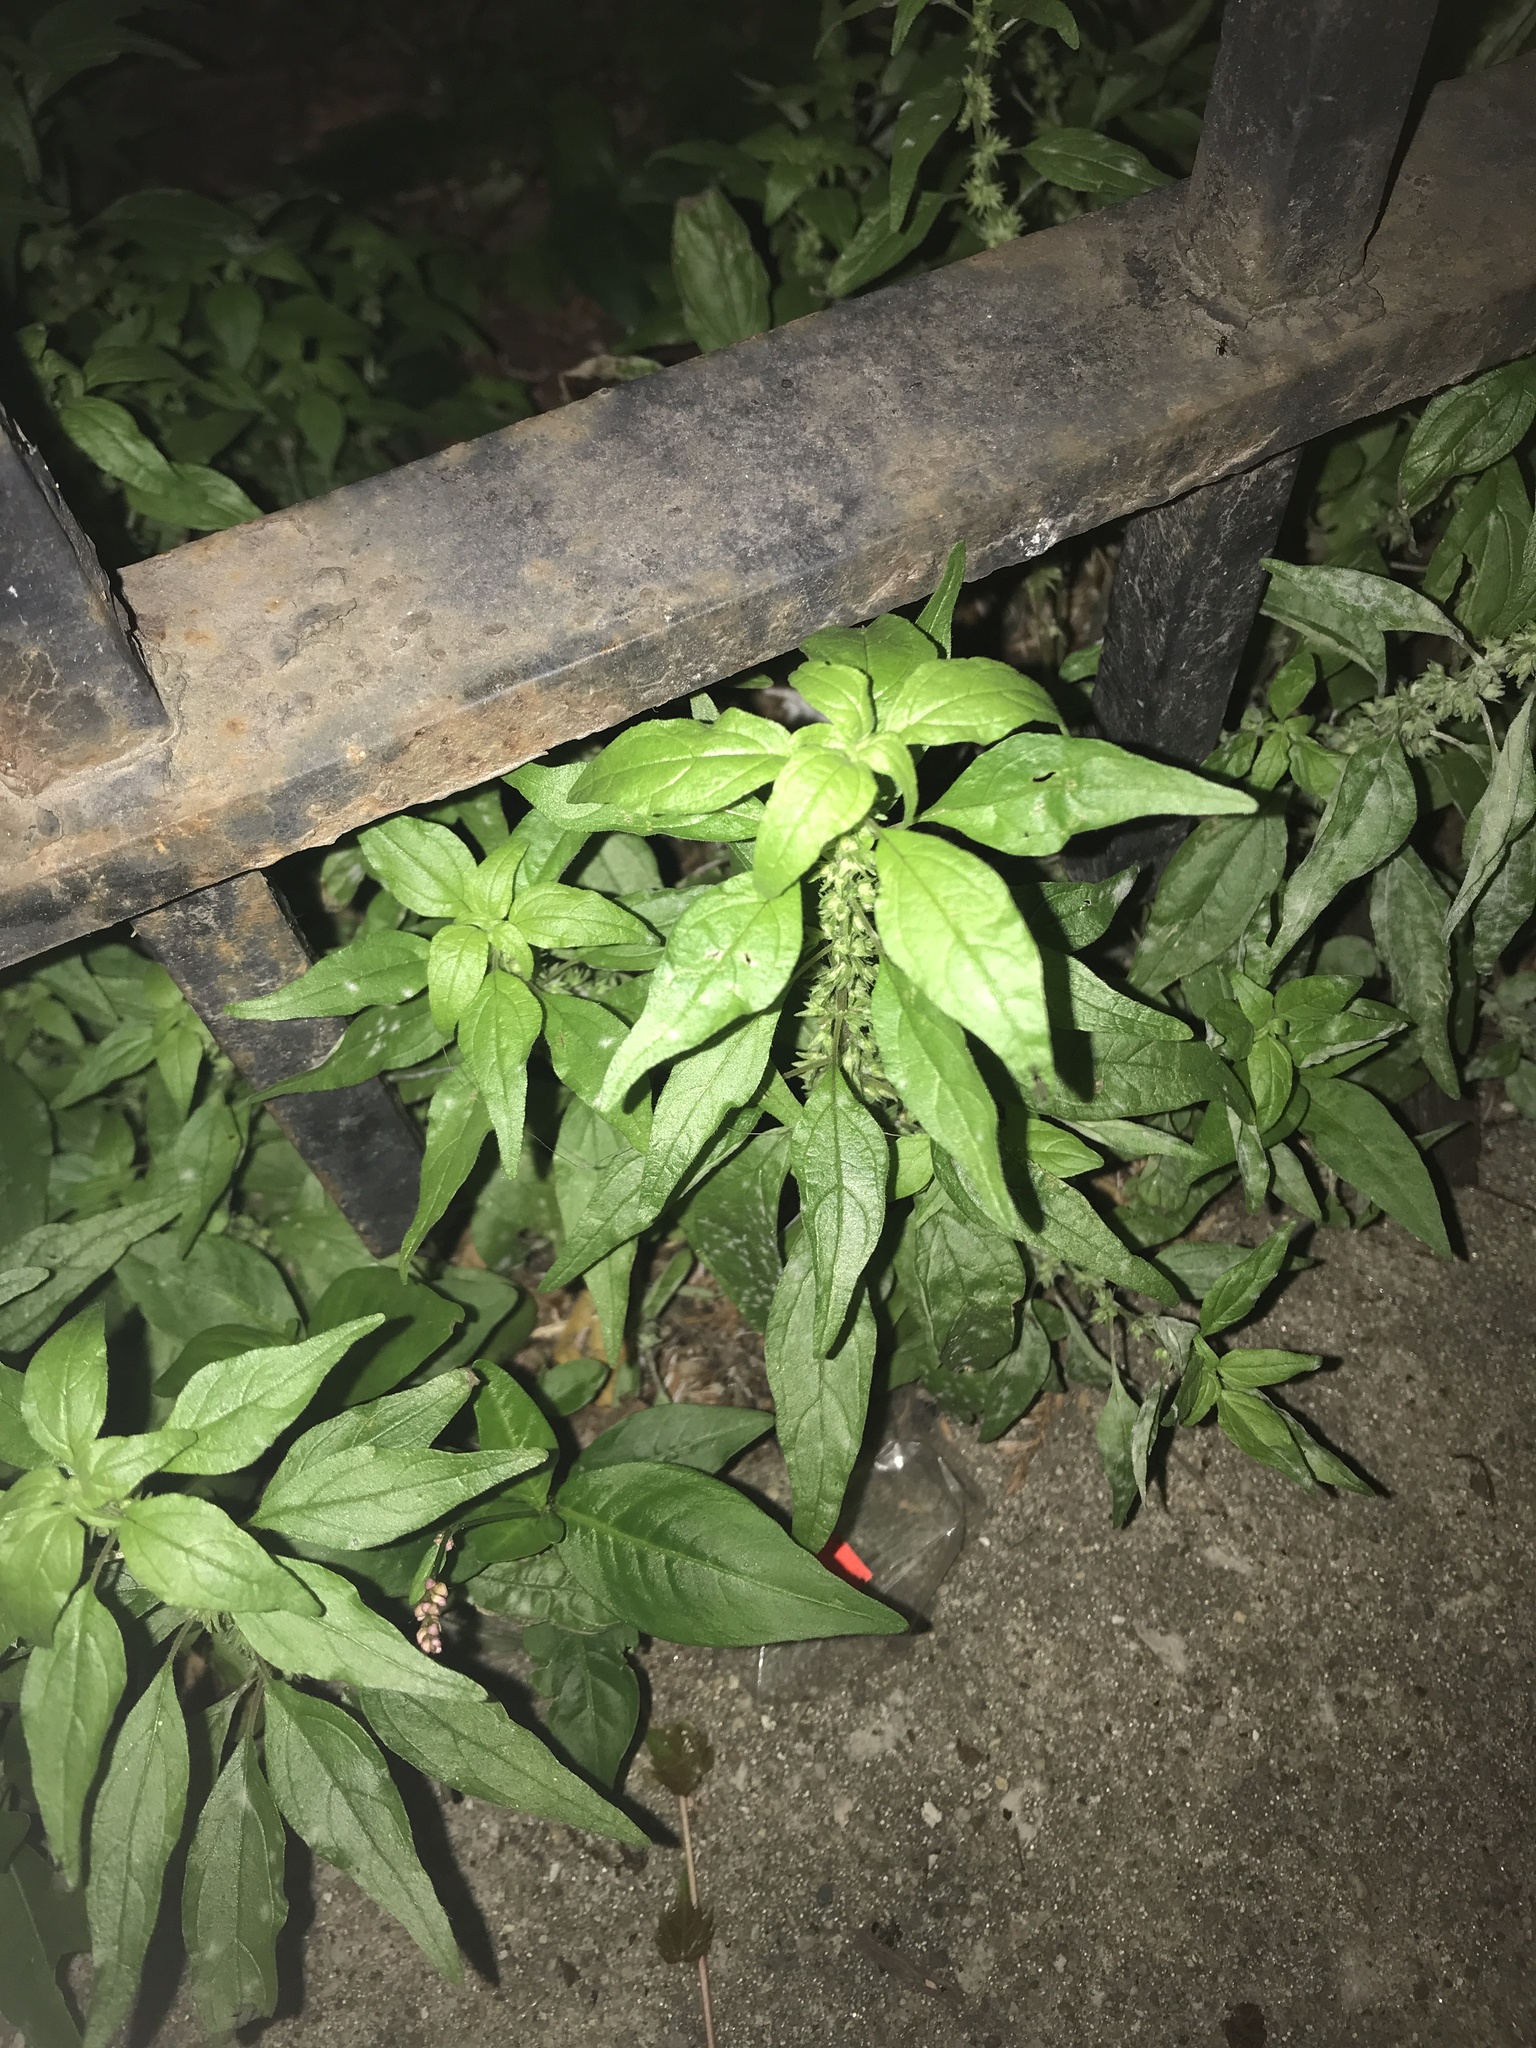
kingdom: Plantae
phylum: Tracheophyta
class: Magnoliopsida
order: Rosales
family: Urticaceae
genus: Parietaria
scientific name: Parietaria pensylvanica
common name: Pennsylvania pellitory
